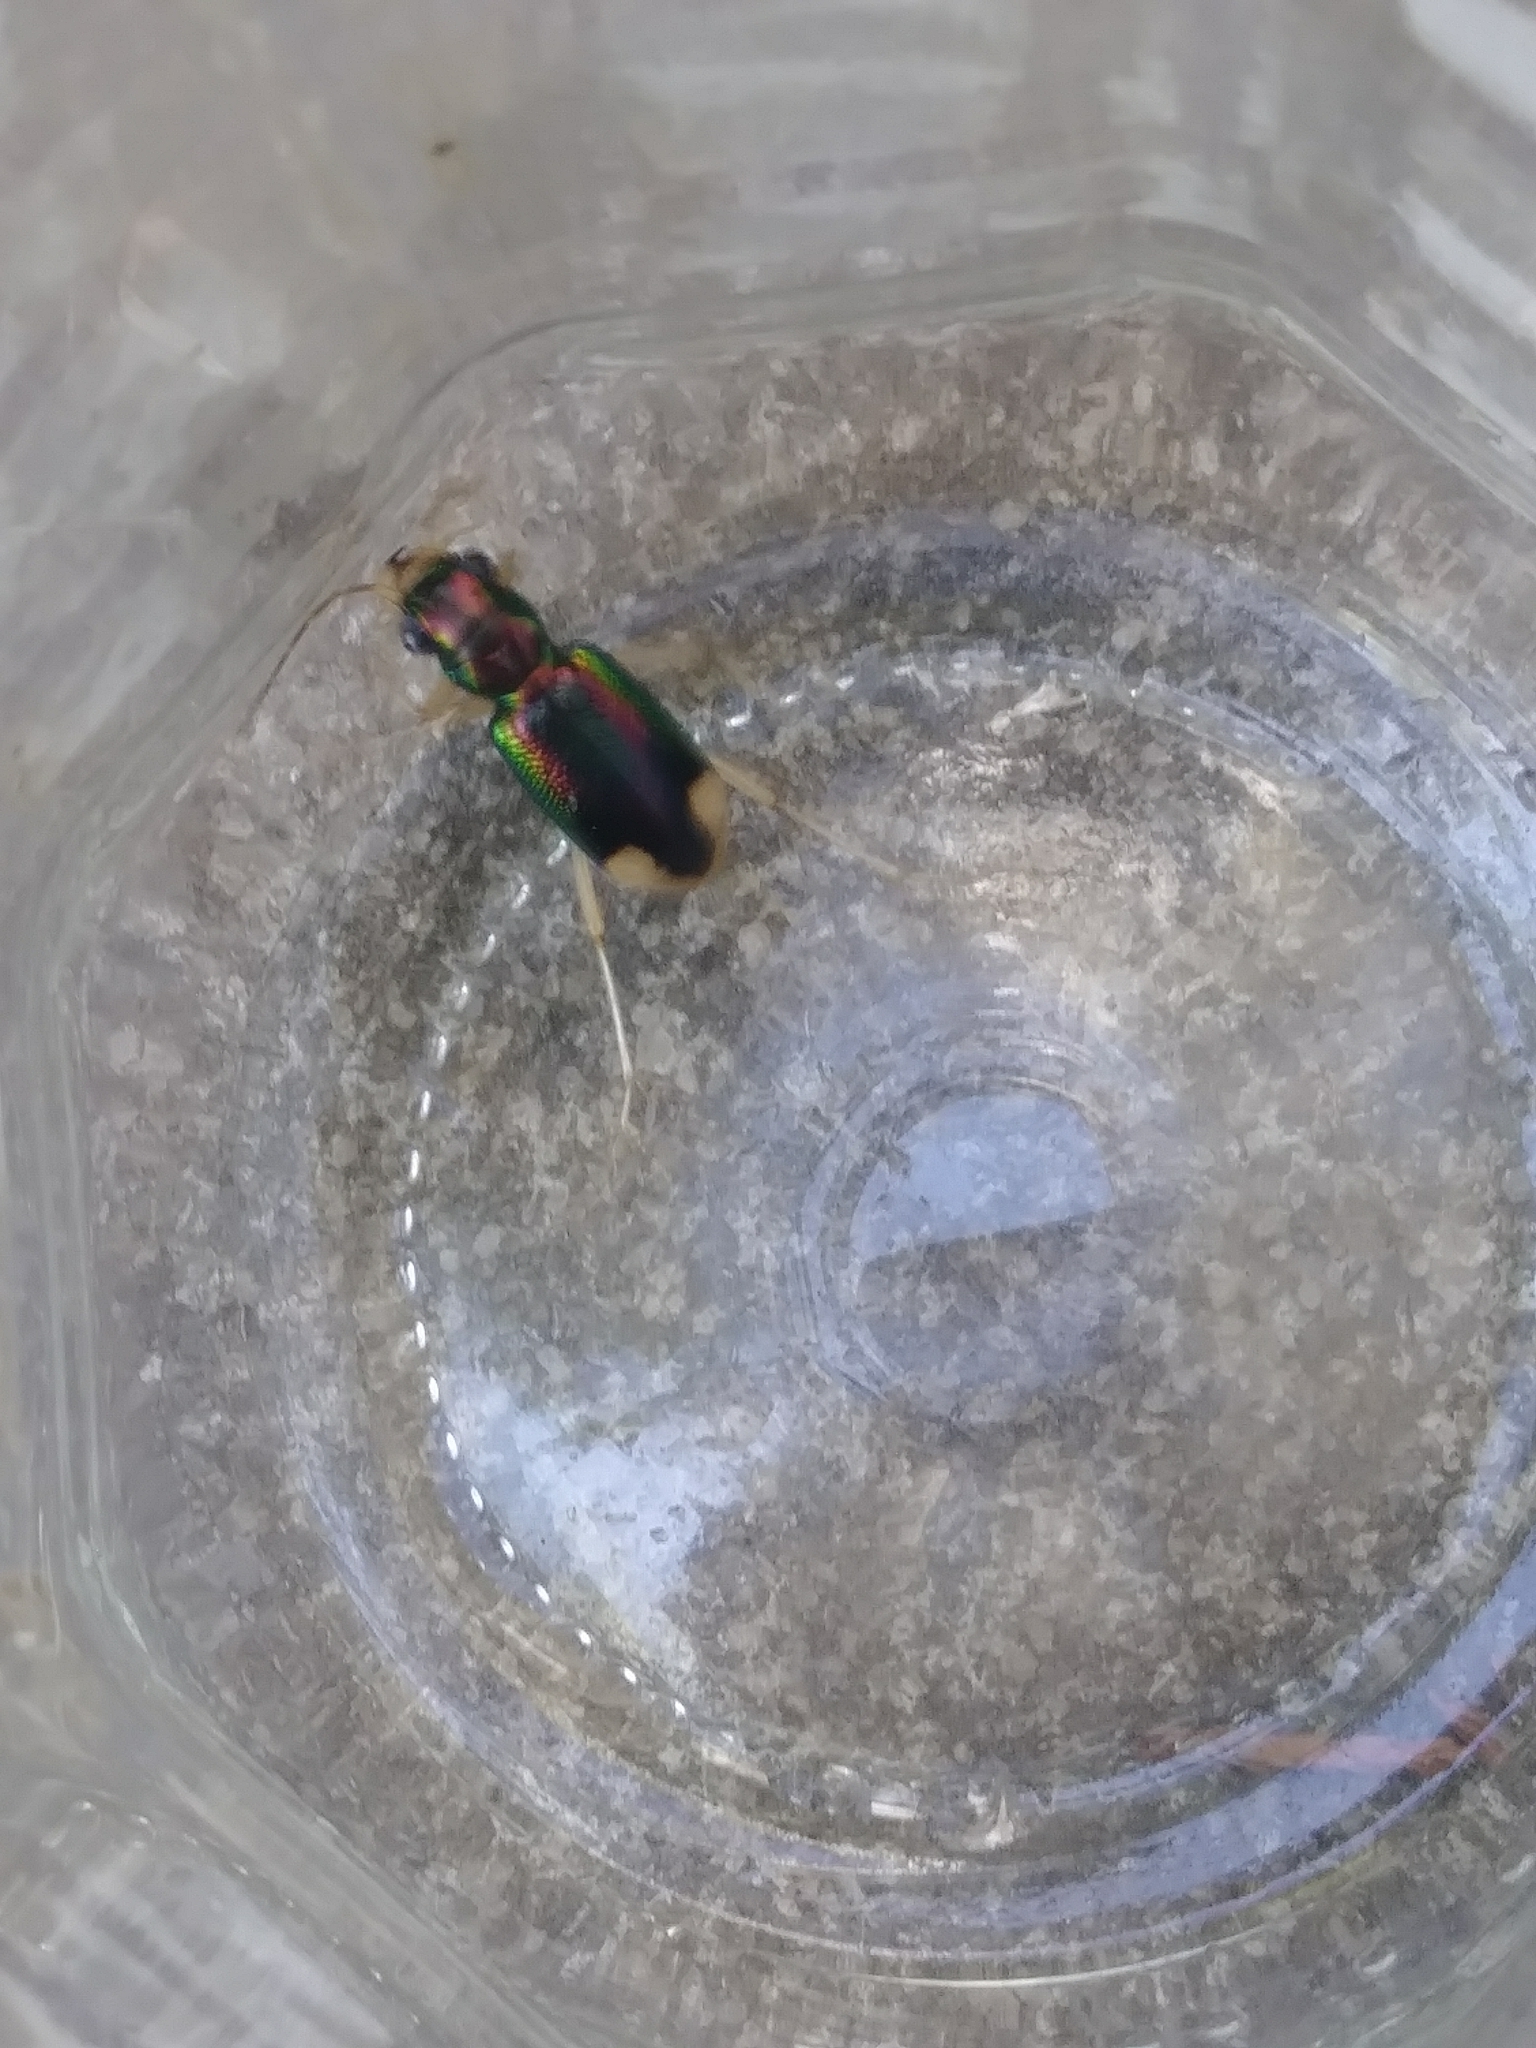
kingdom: Animalia
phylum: Arthropoda
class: Insecta
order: Coleoptera
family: Carabidae
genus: Tetracha
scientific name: Tetracha carolina
